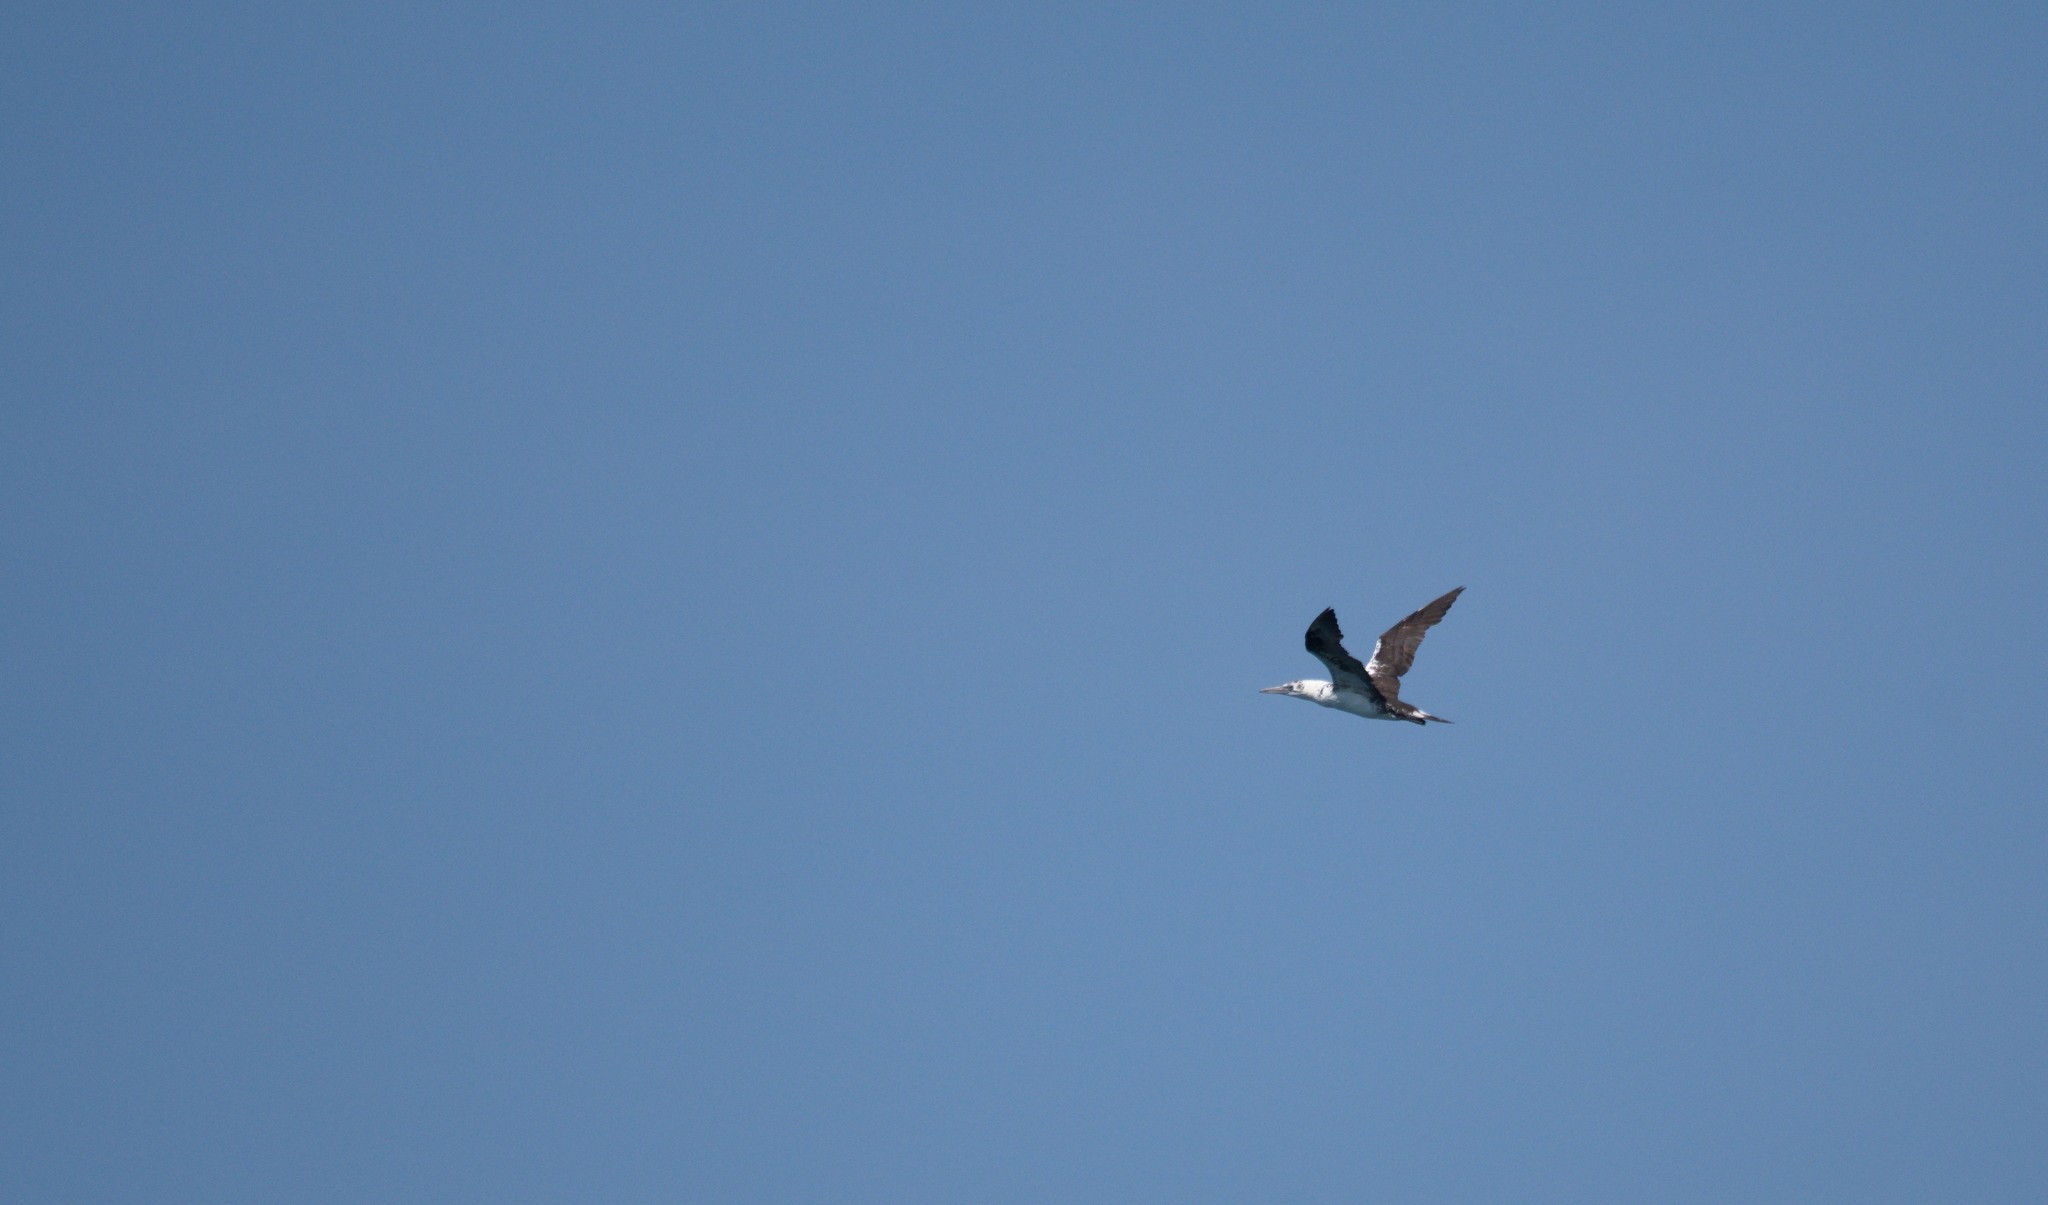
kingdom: Animalia
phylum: Chordata
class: Aves
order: Suliformes
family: Sulidae
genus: Morus
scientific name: Morus bassanus
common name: Northern gannet
